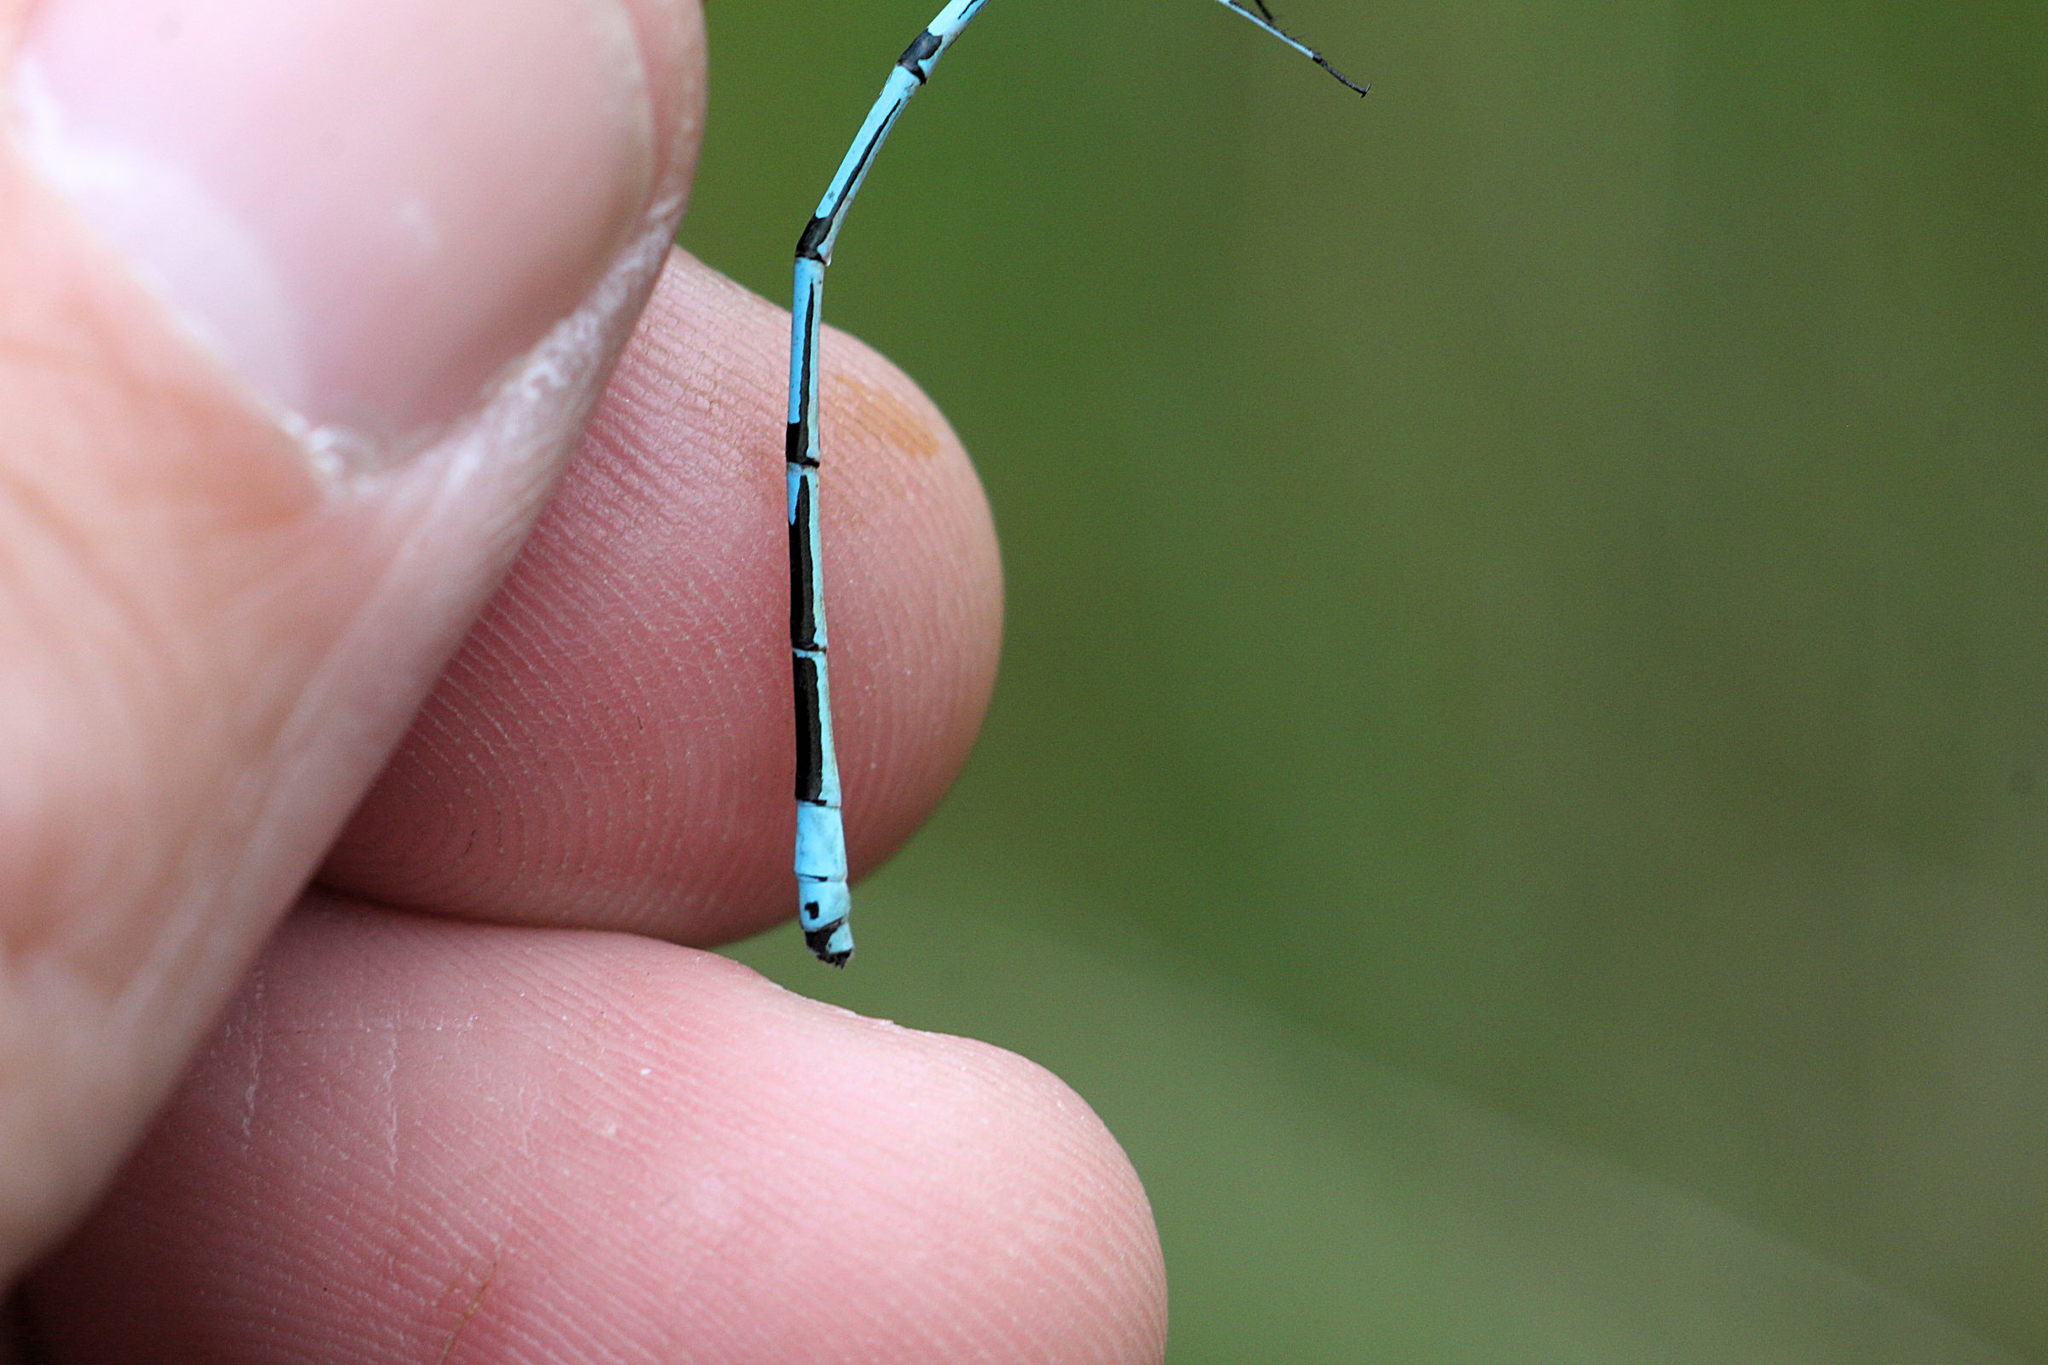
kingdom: Animalia
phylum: Arthropoda
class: Insecta
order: Odonata
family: Coenagrionidae
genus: Coenagrion
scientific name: Coenagrion puella
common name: Azure damselfly
